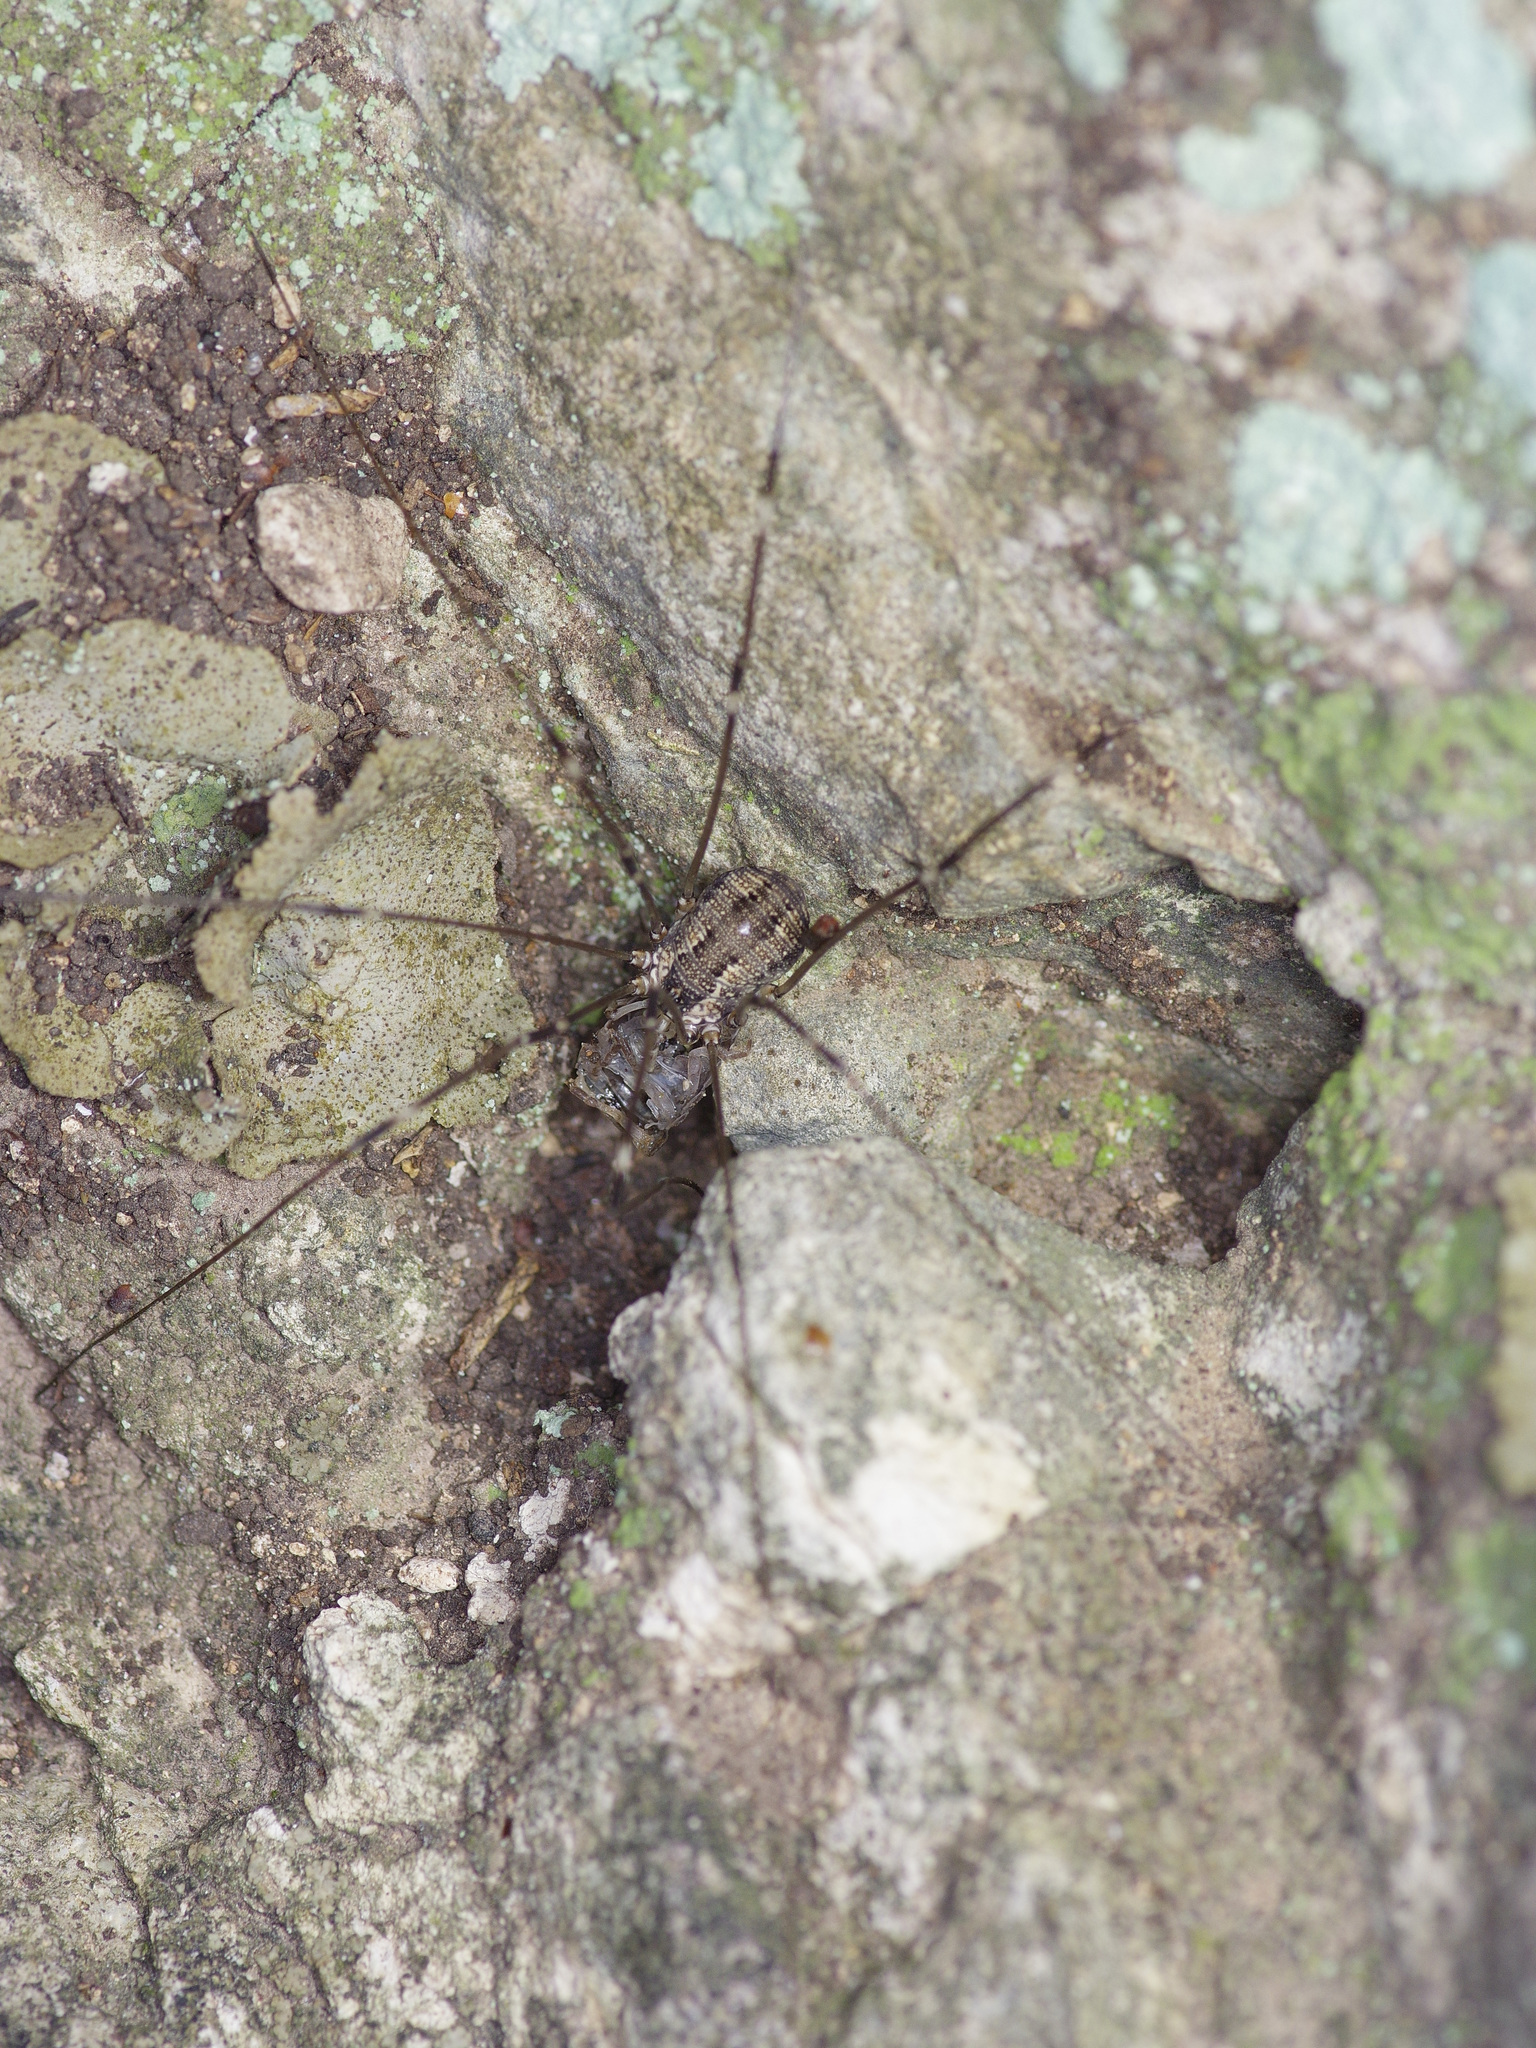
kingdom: Animalia
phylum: Arthropoda
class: Arachnida
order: Opiliones
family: Sclerosomatidae
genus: Leiobunum
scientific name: Leiobunum townsendi
